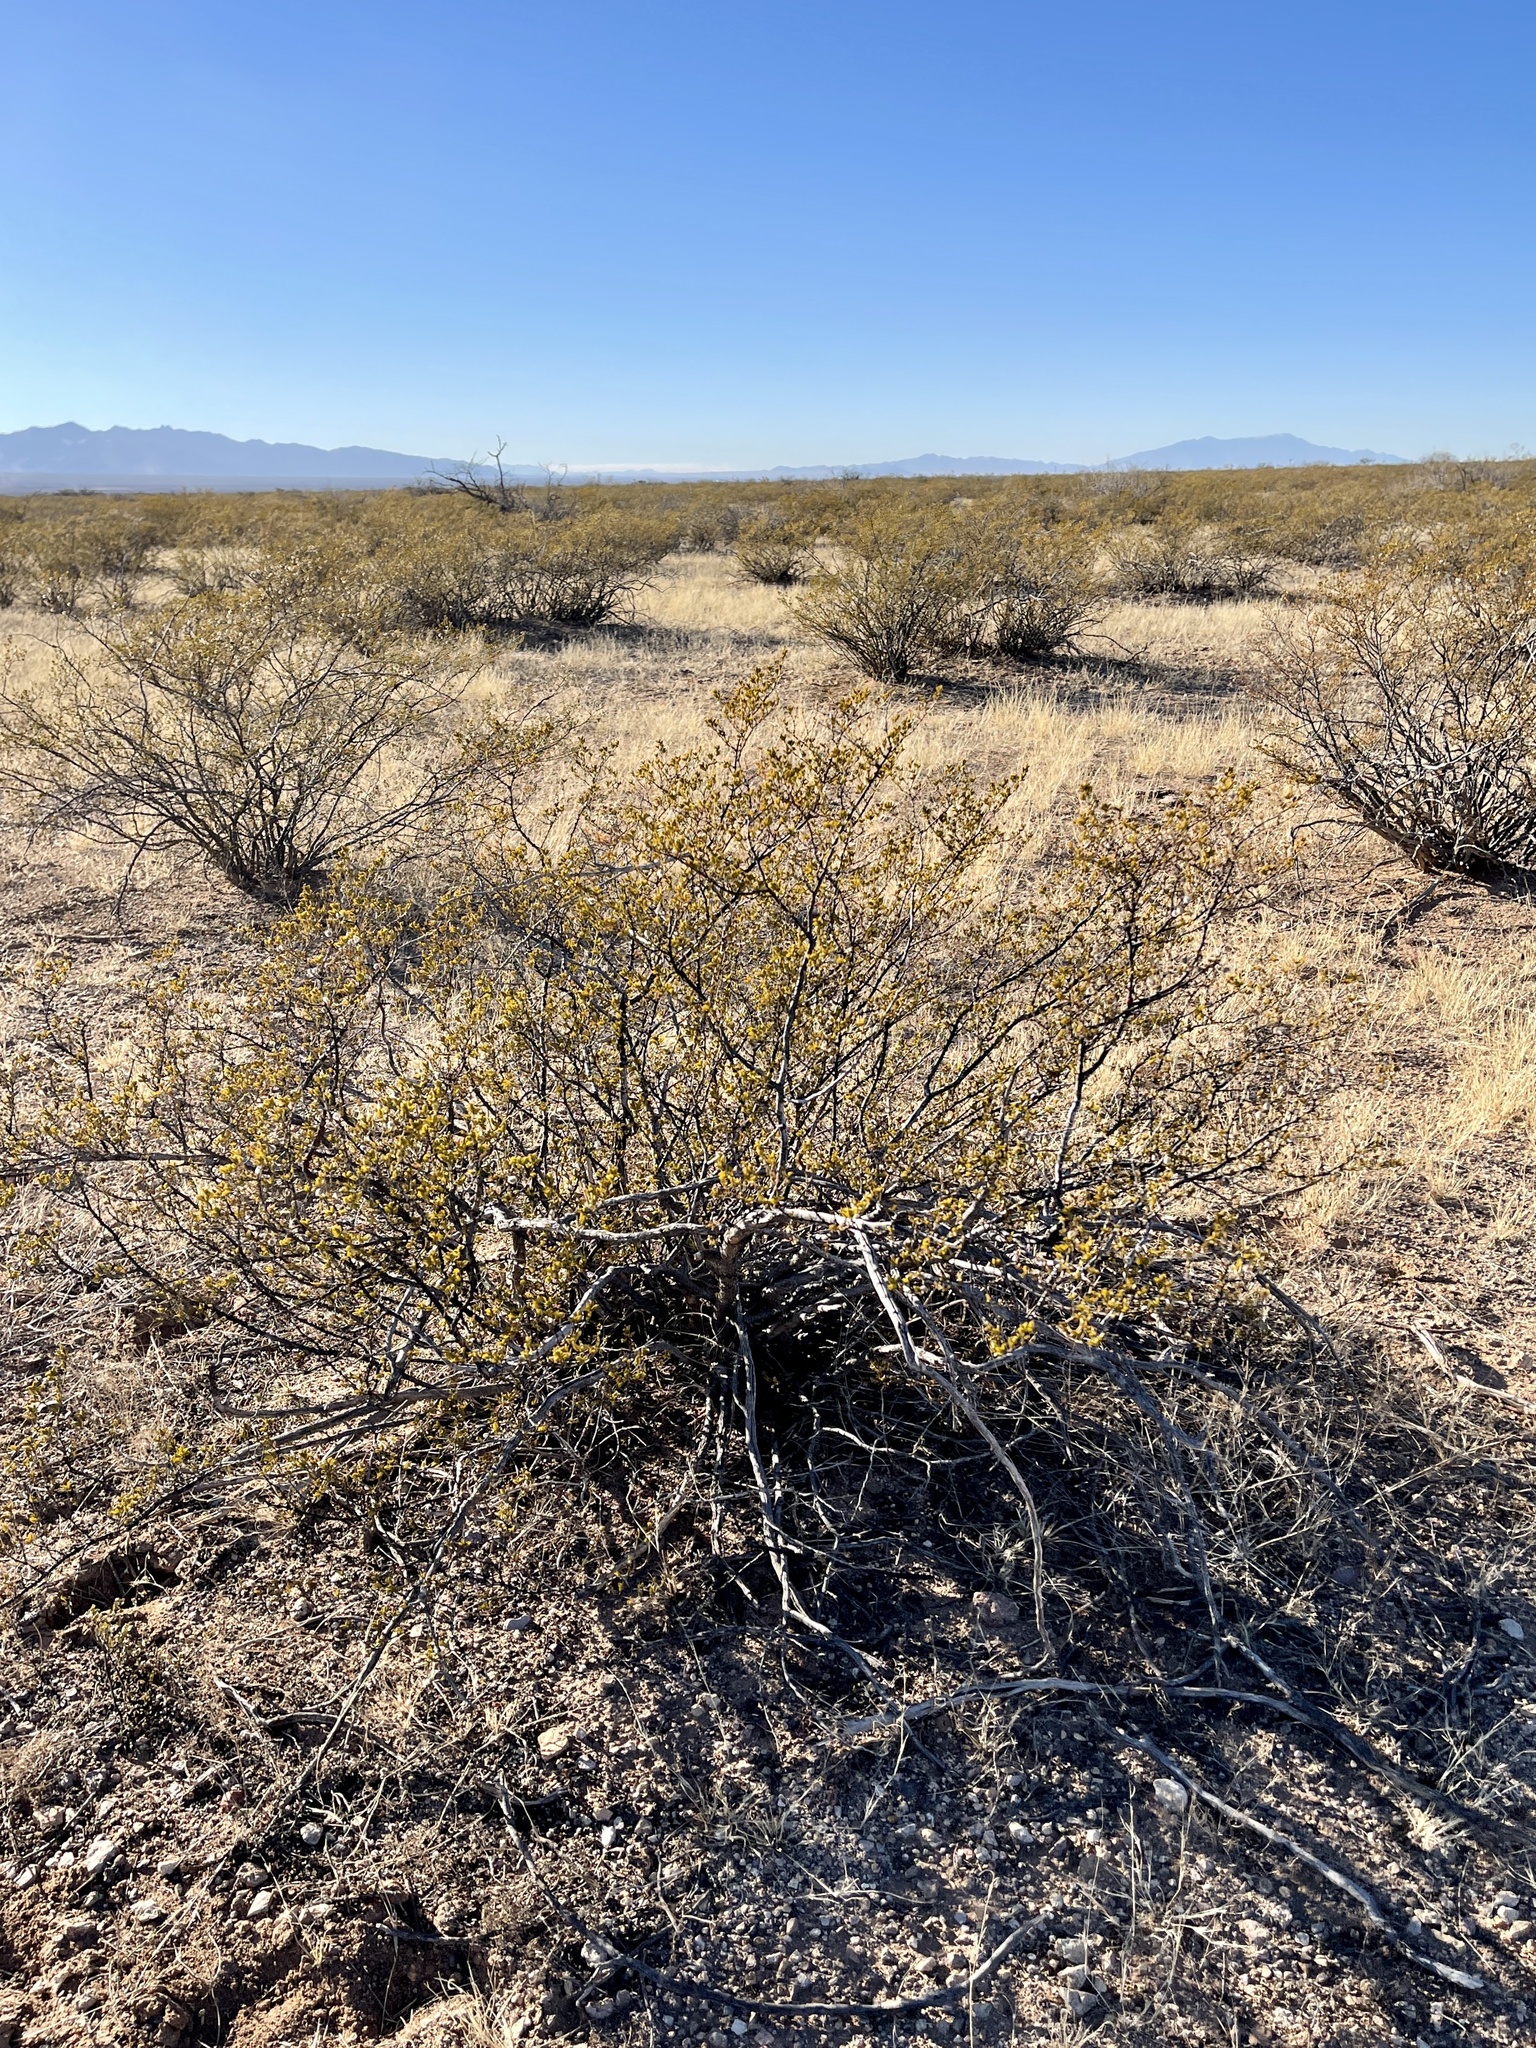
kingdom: Plantae
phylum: Tracheophyta
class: Magnoliopsida
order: Zygophyllales
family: Zygophyllaceae
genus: Larrea
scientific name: Larrea tridentata
